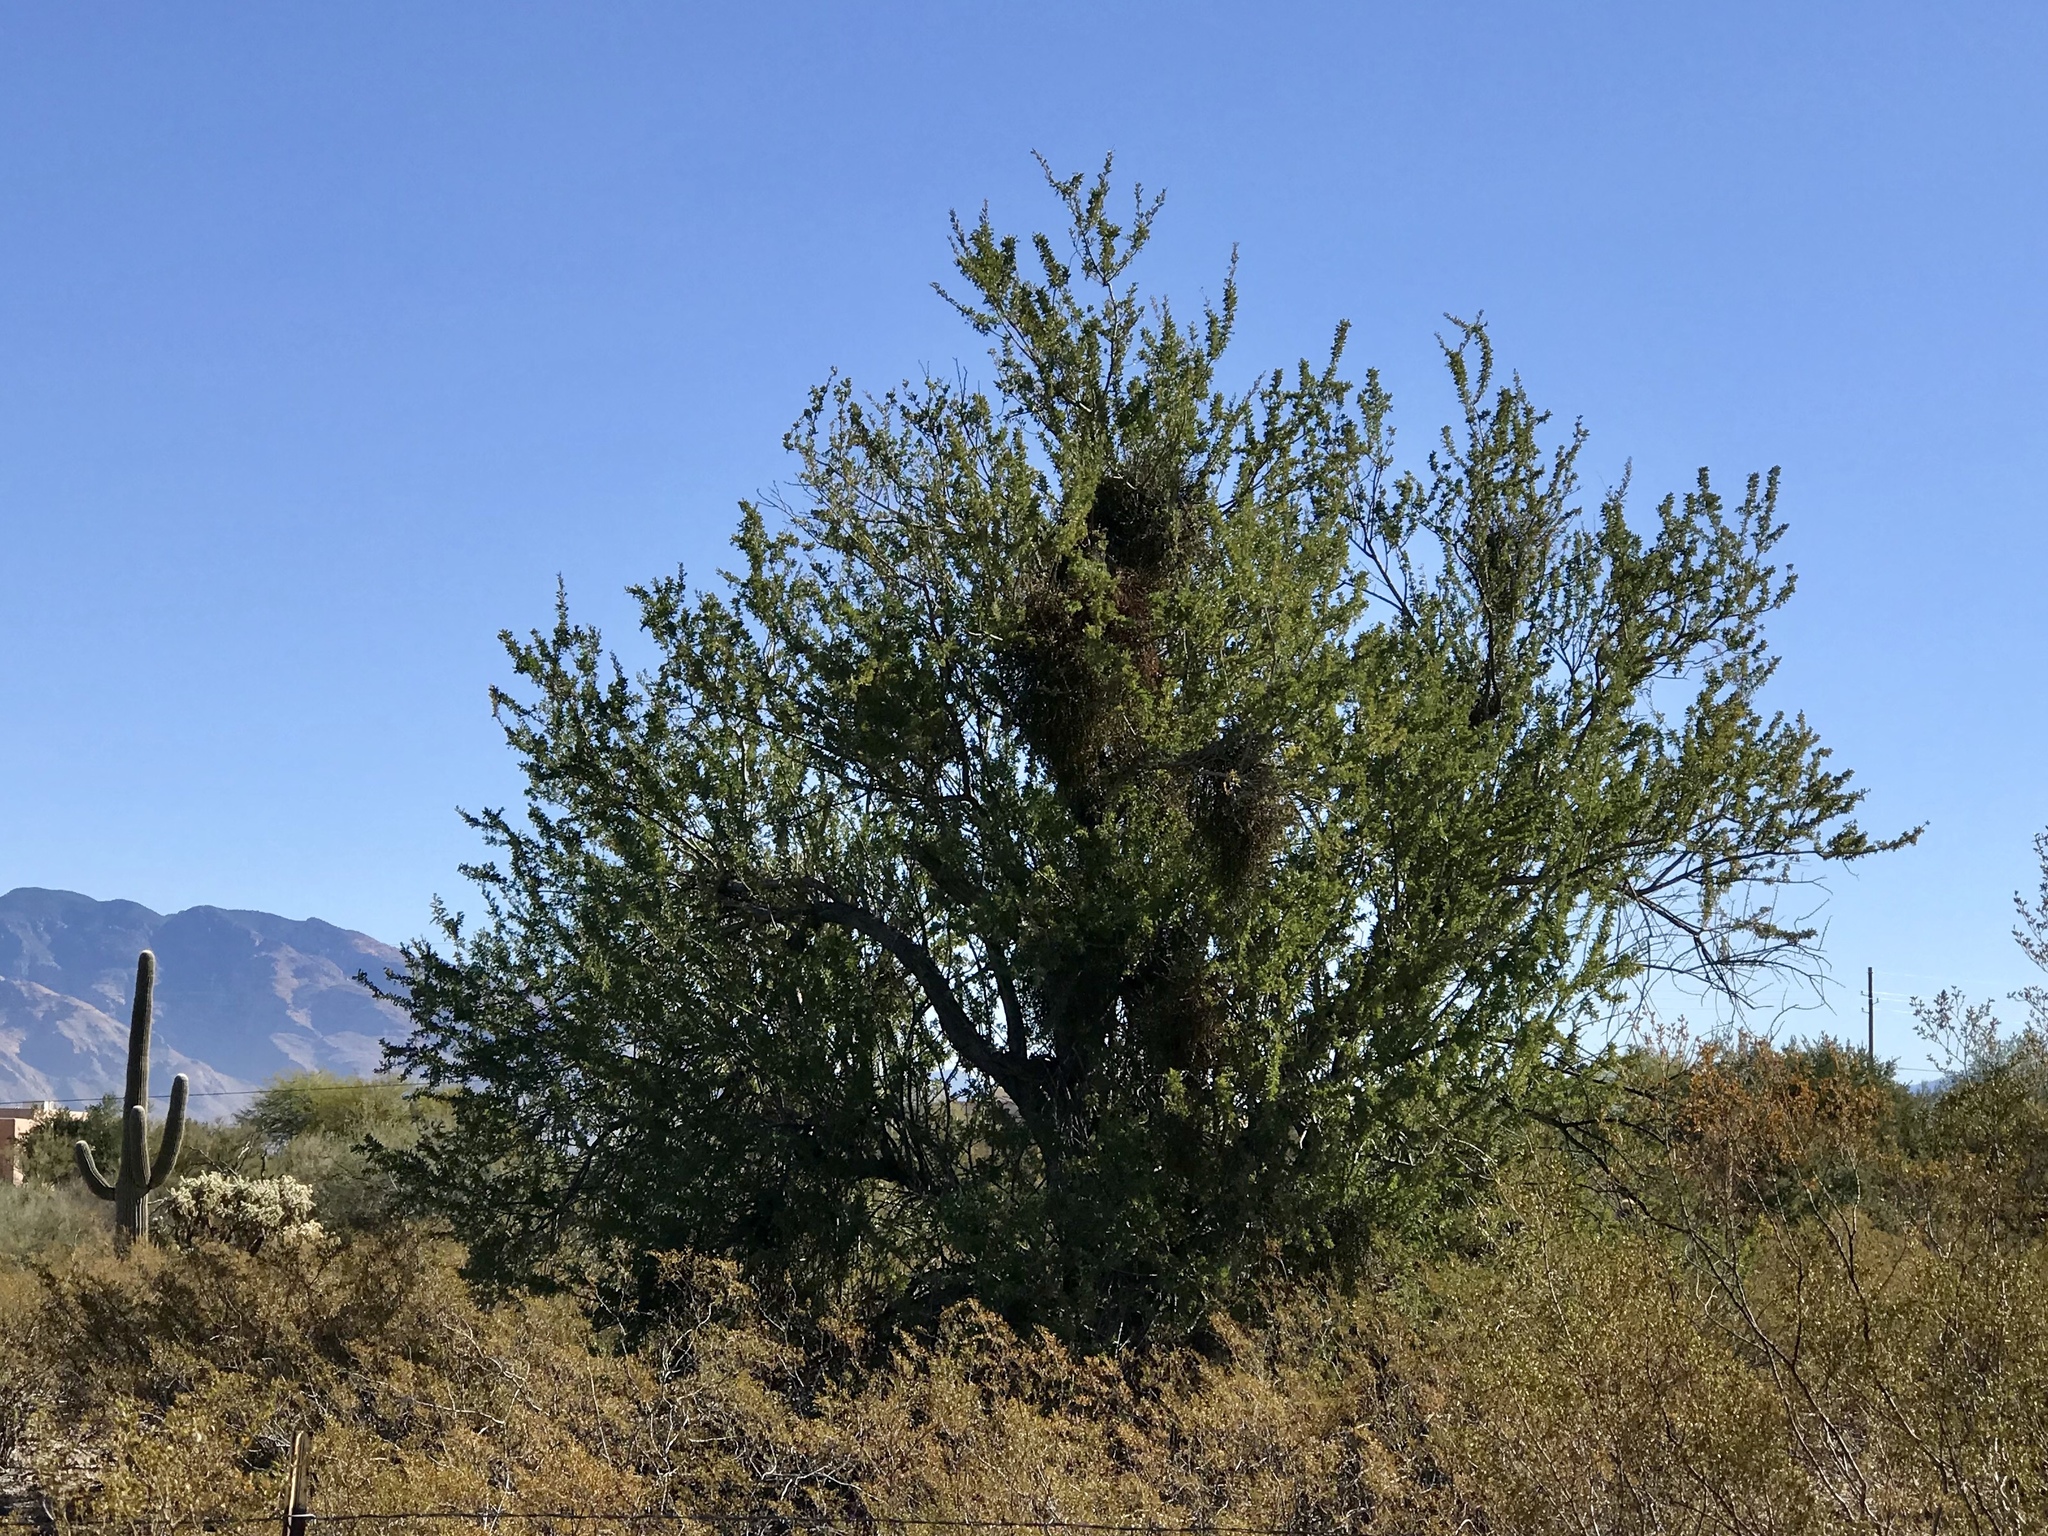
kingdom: Plantae
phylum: Tracheophyta
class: Magnoliopsida
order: Fabales
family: Fabaceae
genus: Olneya
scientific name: Olneya tesota
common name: Desert ironwood
